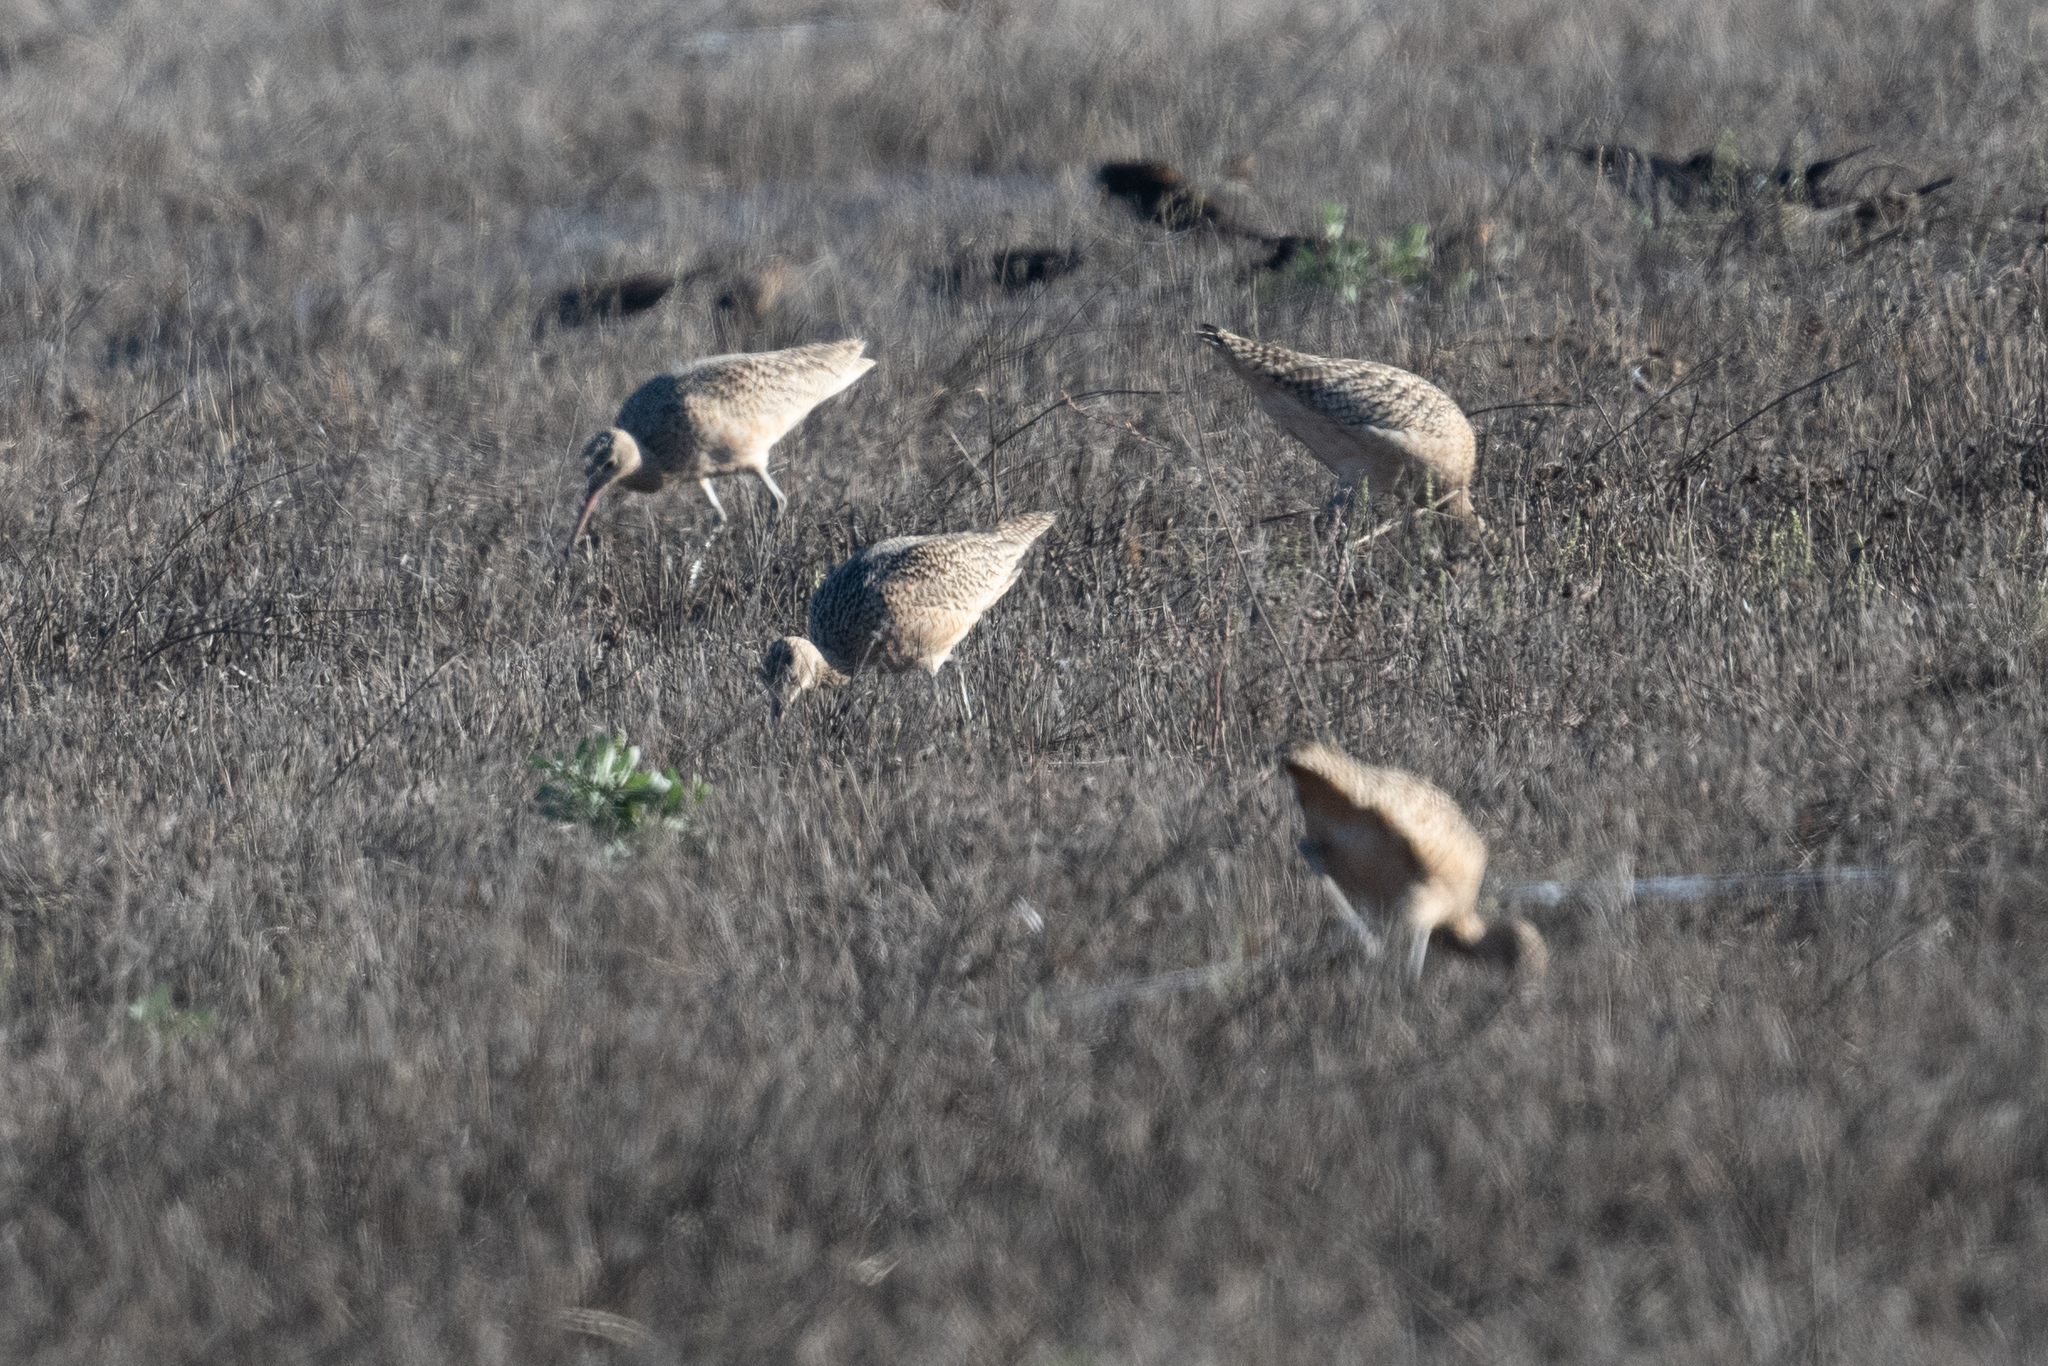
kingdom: Animalia
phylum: Chordata
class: Aves
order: Charadriiformes
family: Scolopacidae
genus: Numenius
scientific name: Numenius americanus
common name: Long-billed curlew
